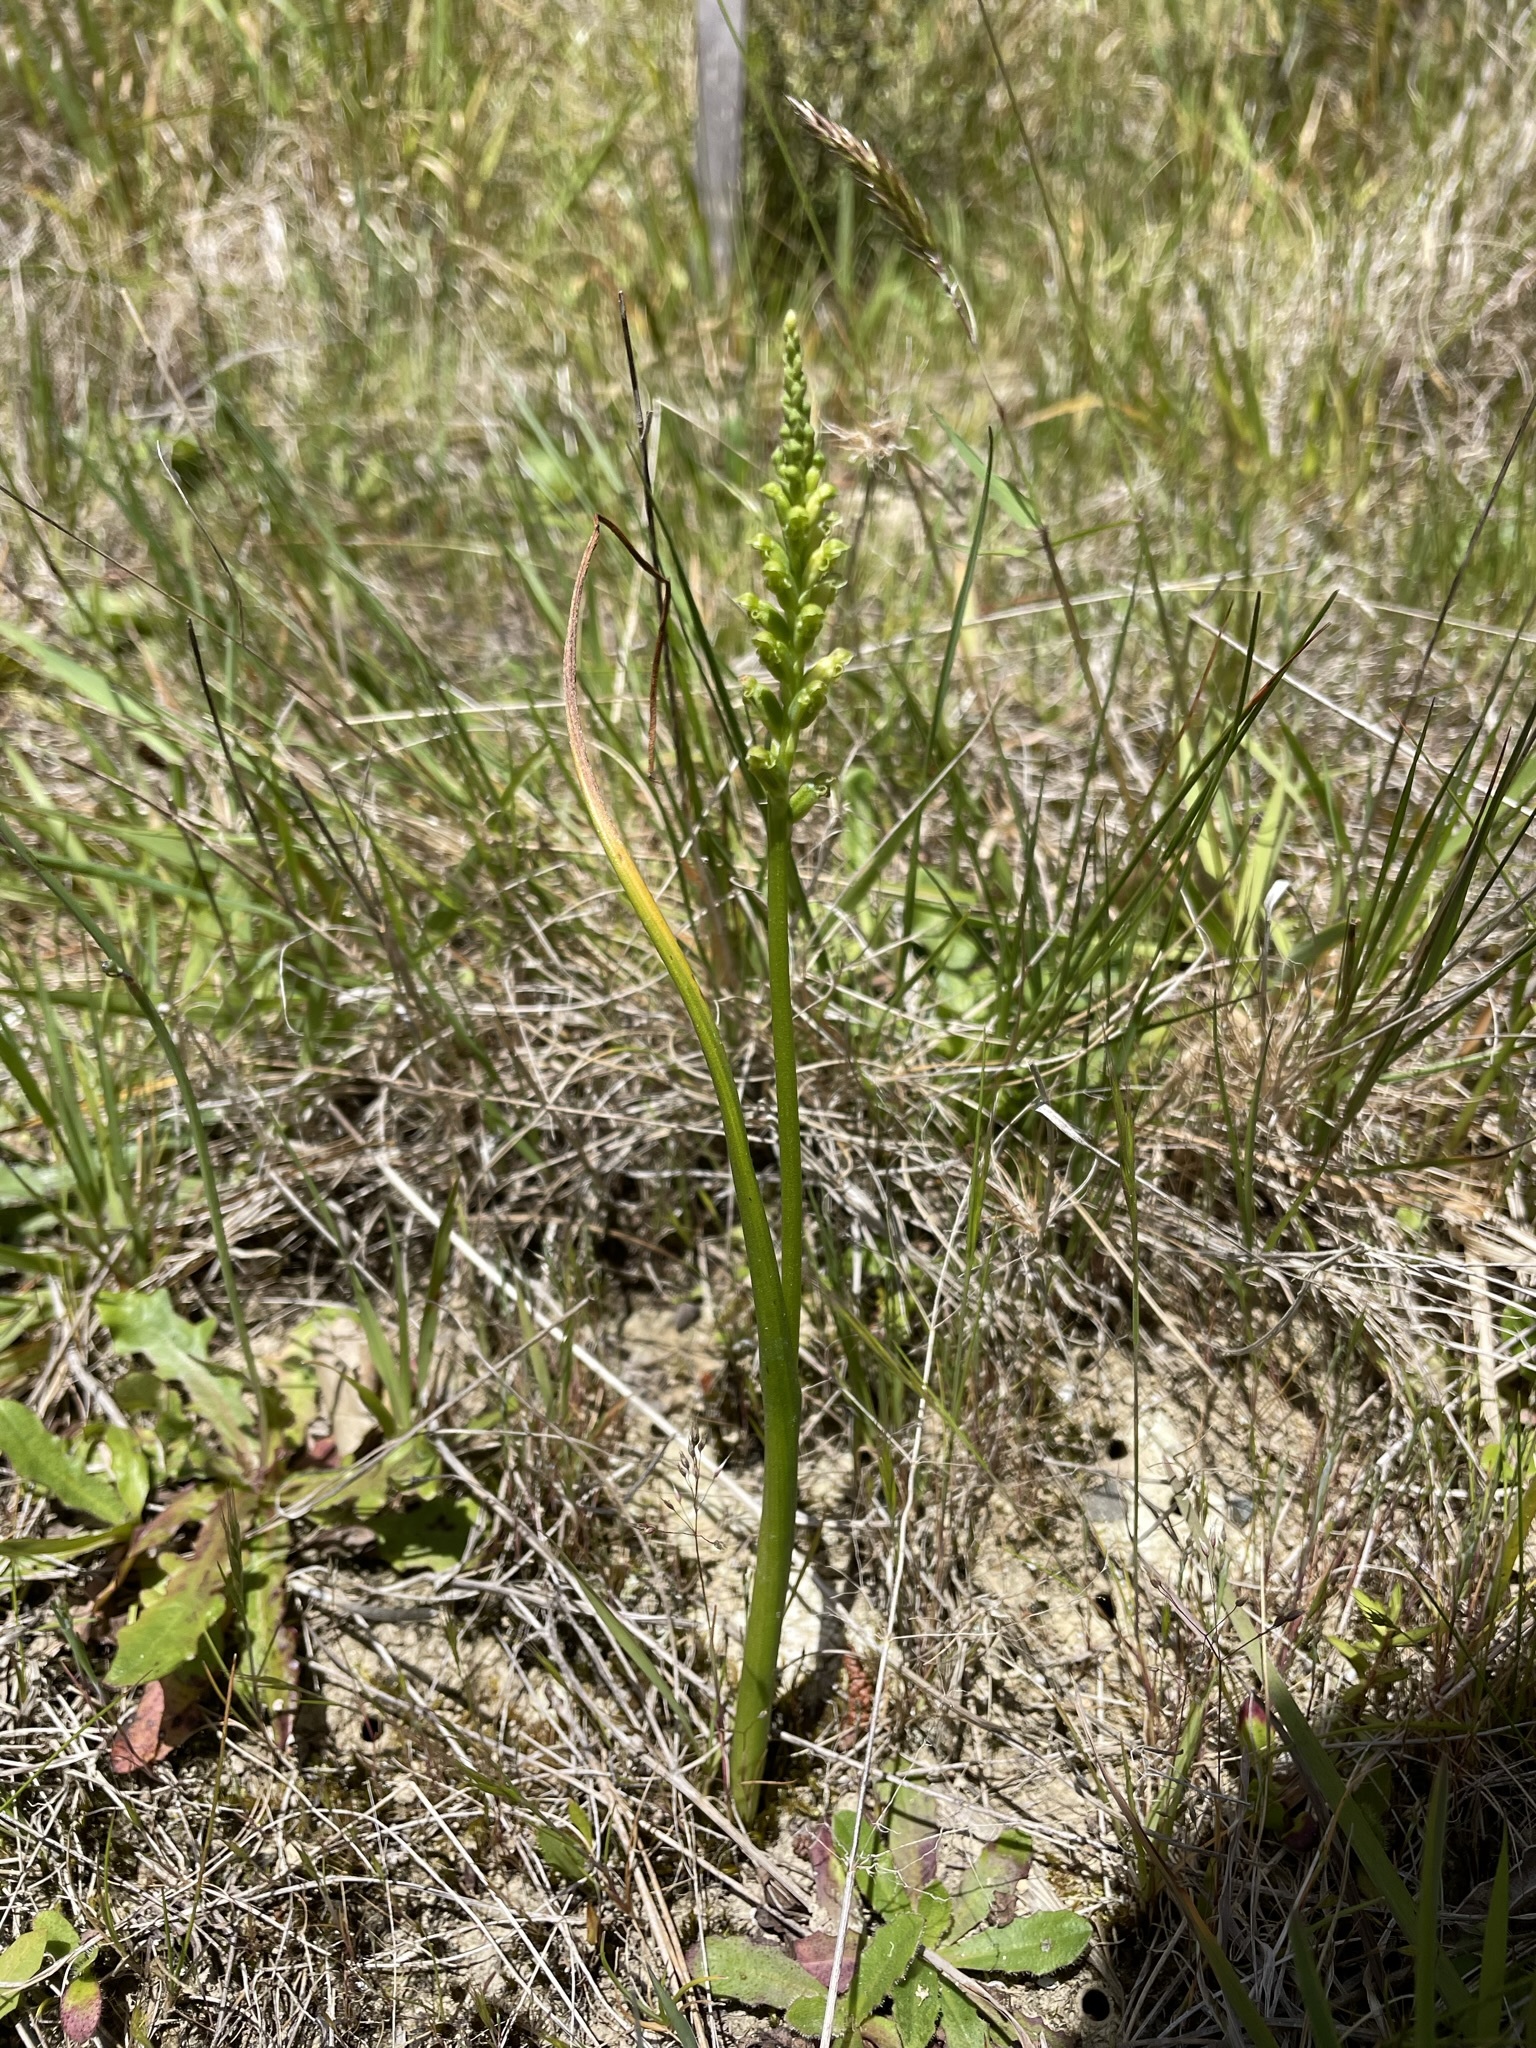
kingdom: Plantae
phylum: Tracheophyta
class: Liliopsida
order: Asparagales
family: Orchidaceae
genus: Microtis
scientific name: Microtis unifolia
